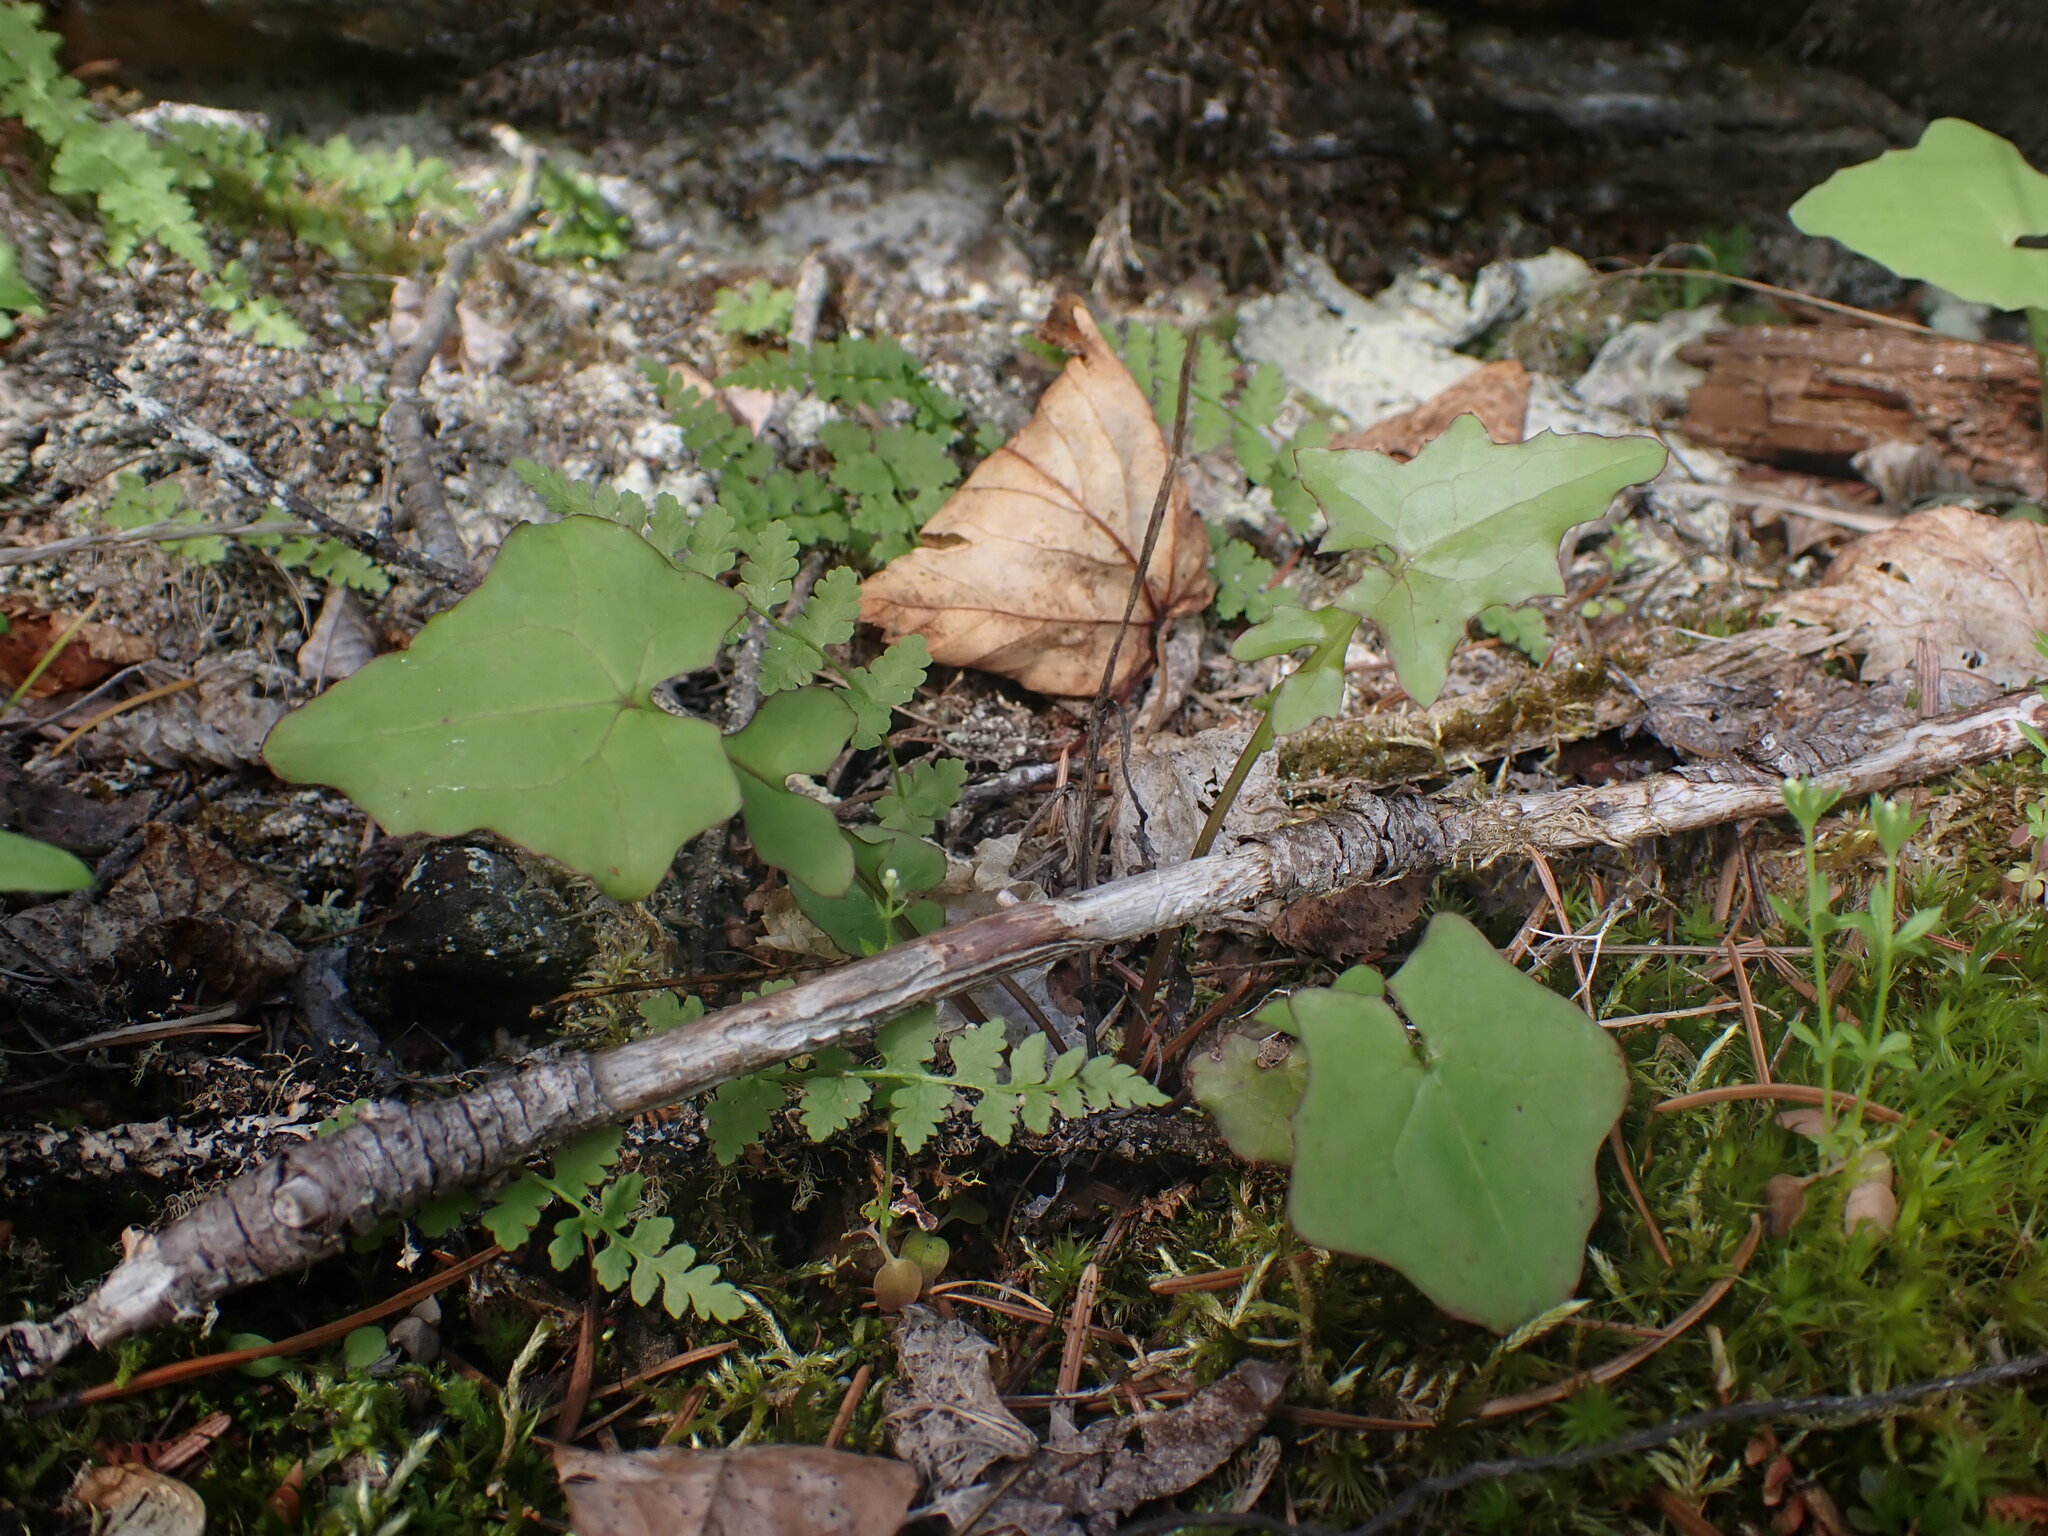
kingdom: Plantae
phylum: Tracheophyta
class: Magnoliopsida
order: Asterales
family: Asteraceae
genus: Mycelis
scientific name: Mycelis muralis
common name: Wall lettuce
